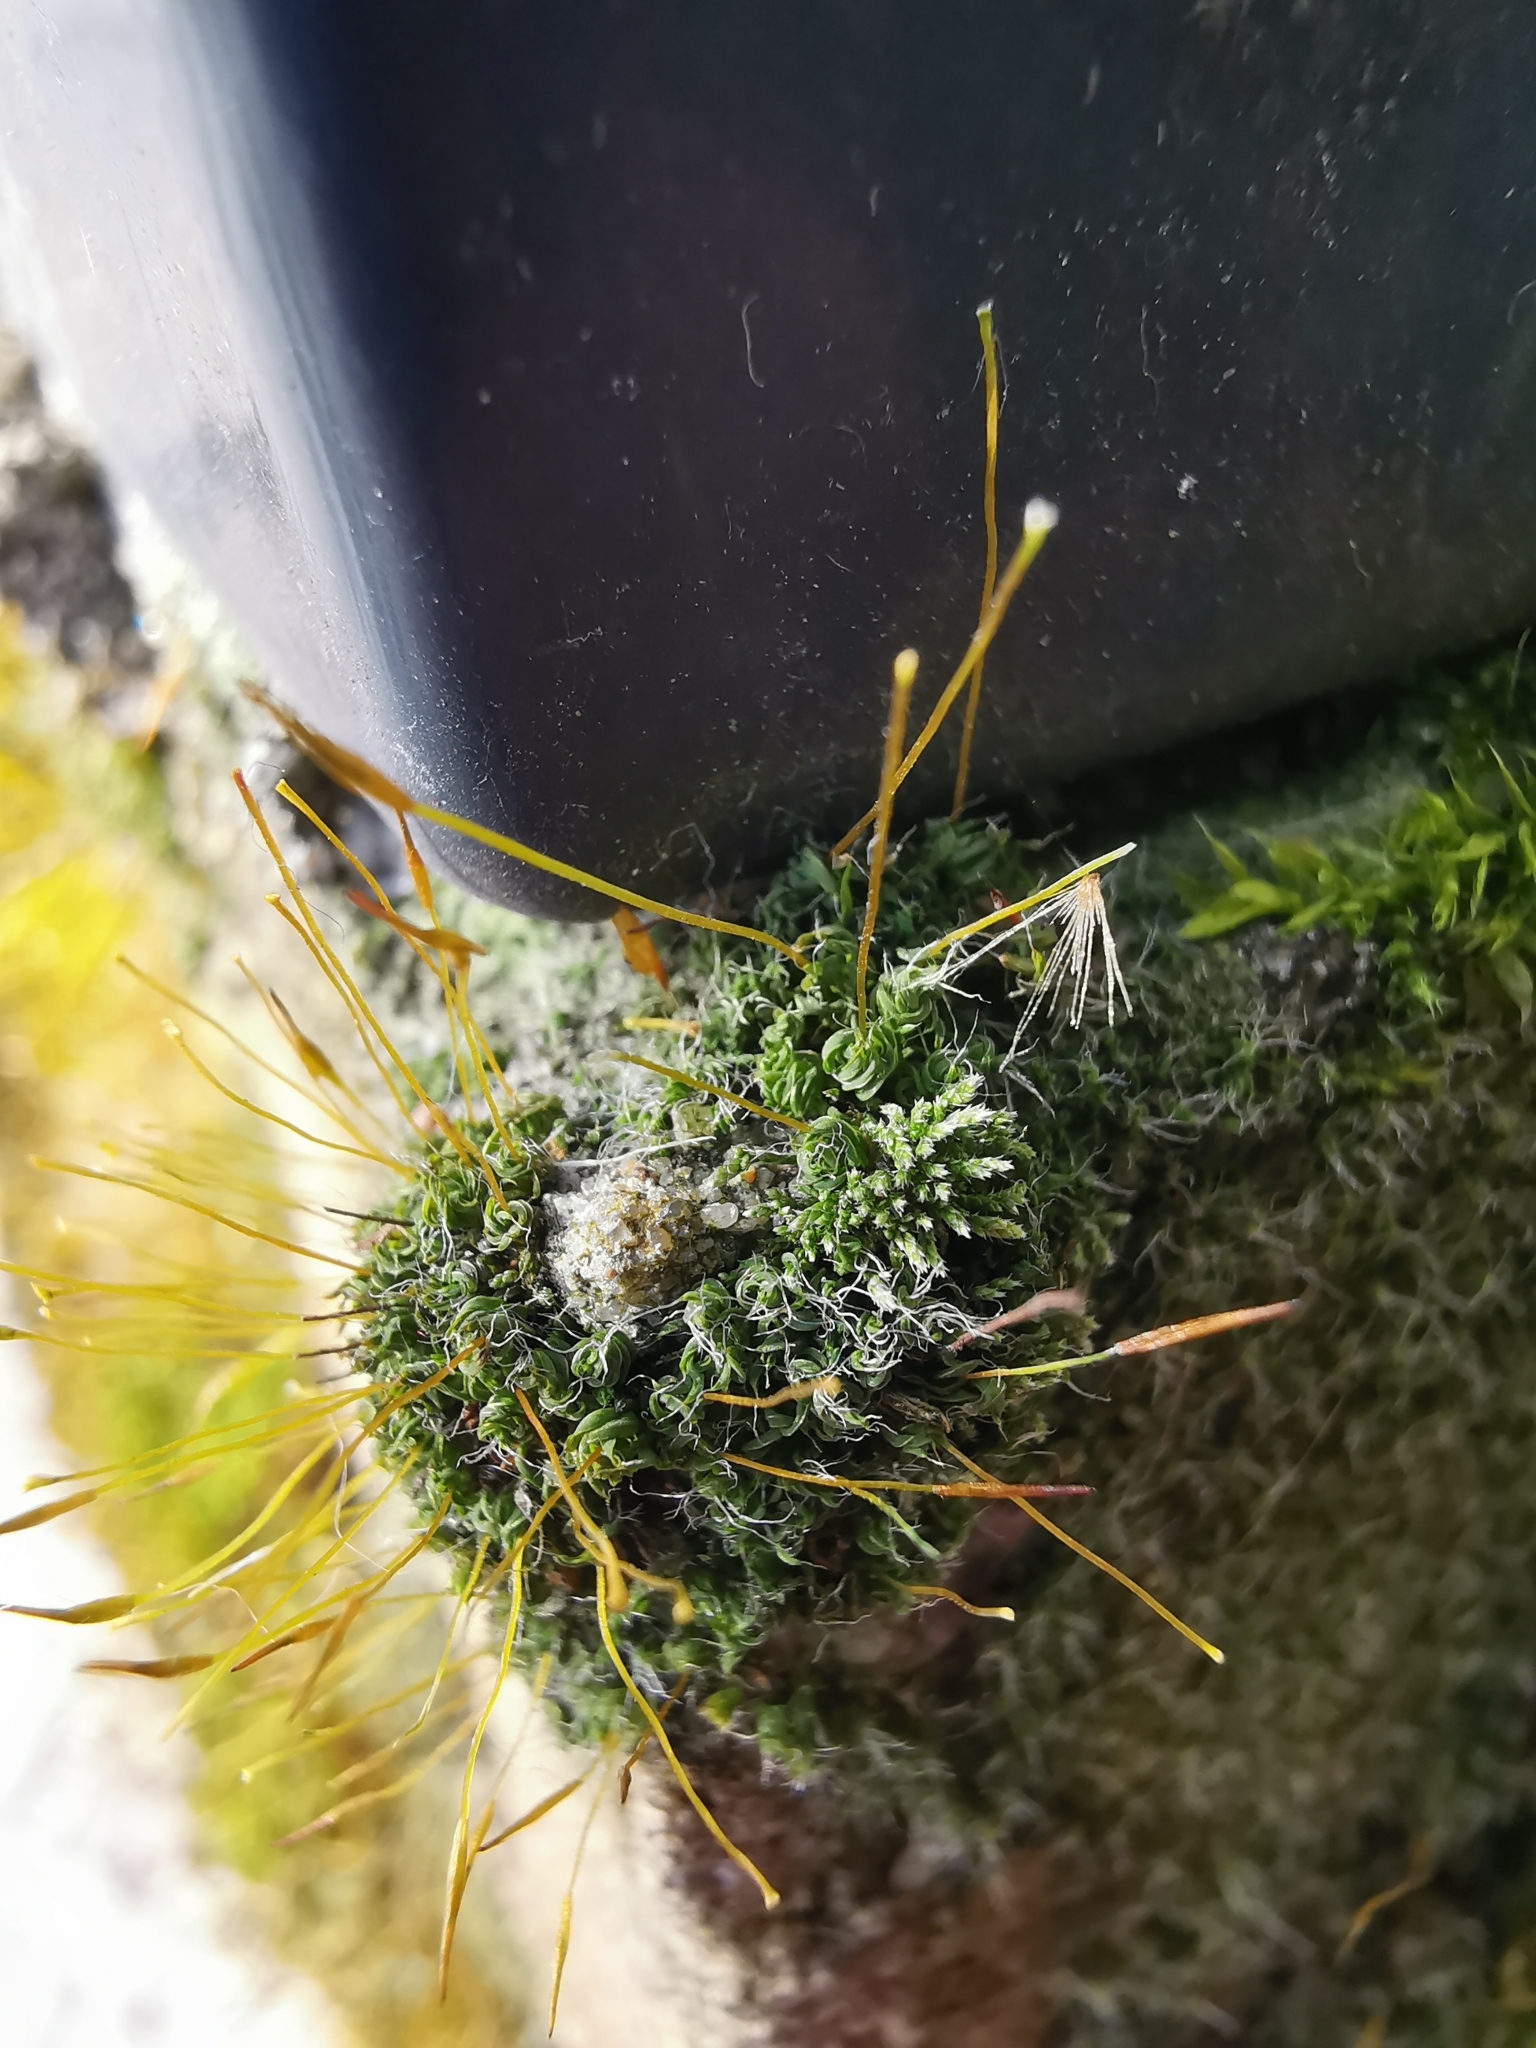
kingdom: Plantae
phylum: Bryophyta
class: Bryopsida
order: Pottiales
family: Pottiaceae
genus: Tortula
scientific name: Tortula muralis
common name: Wall screw-moss
